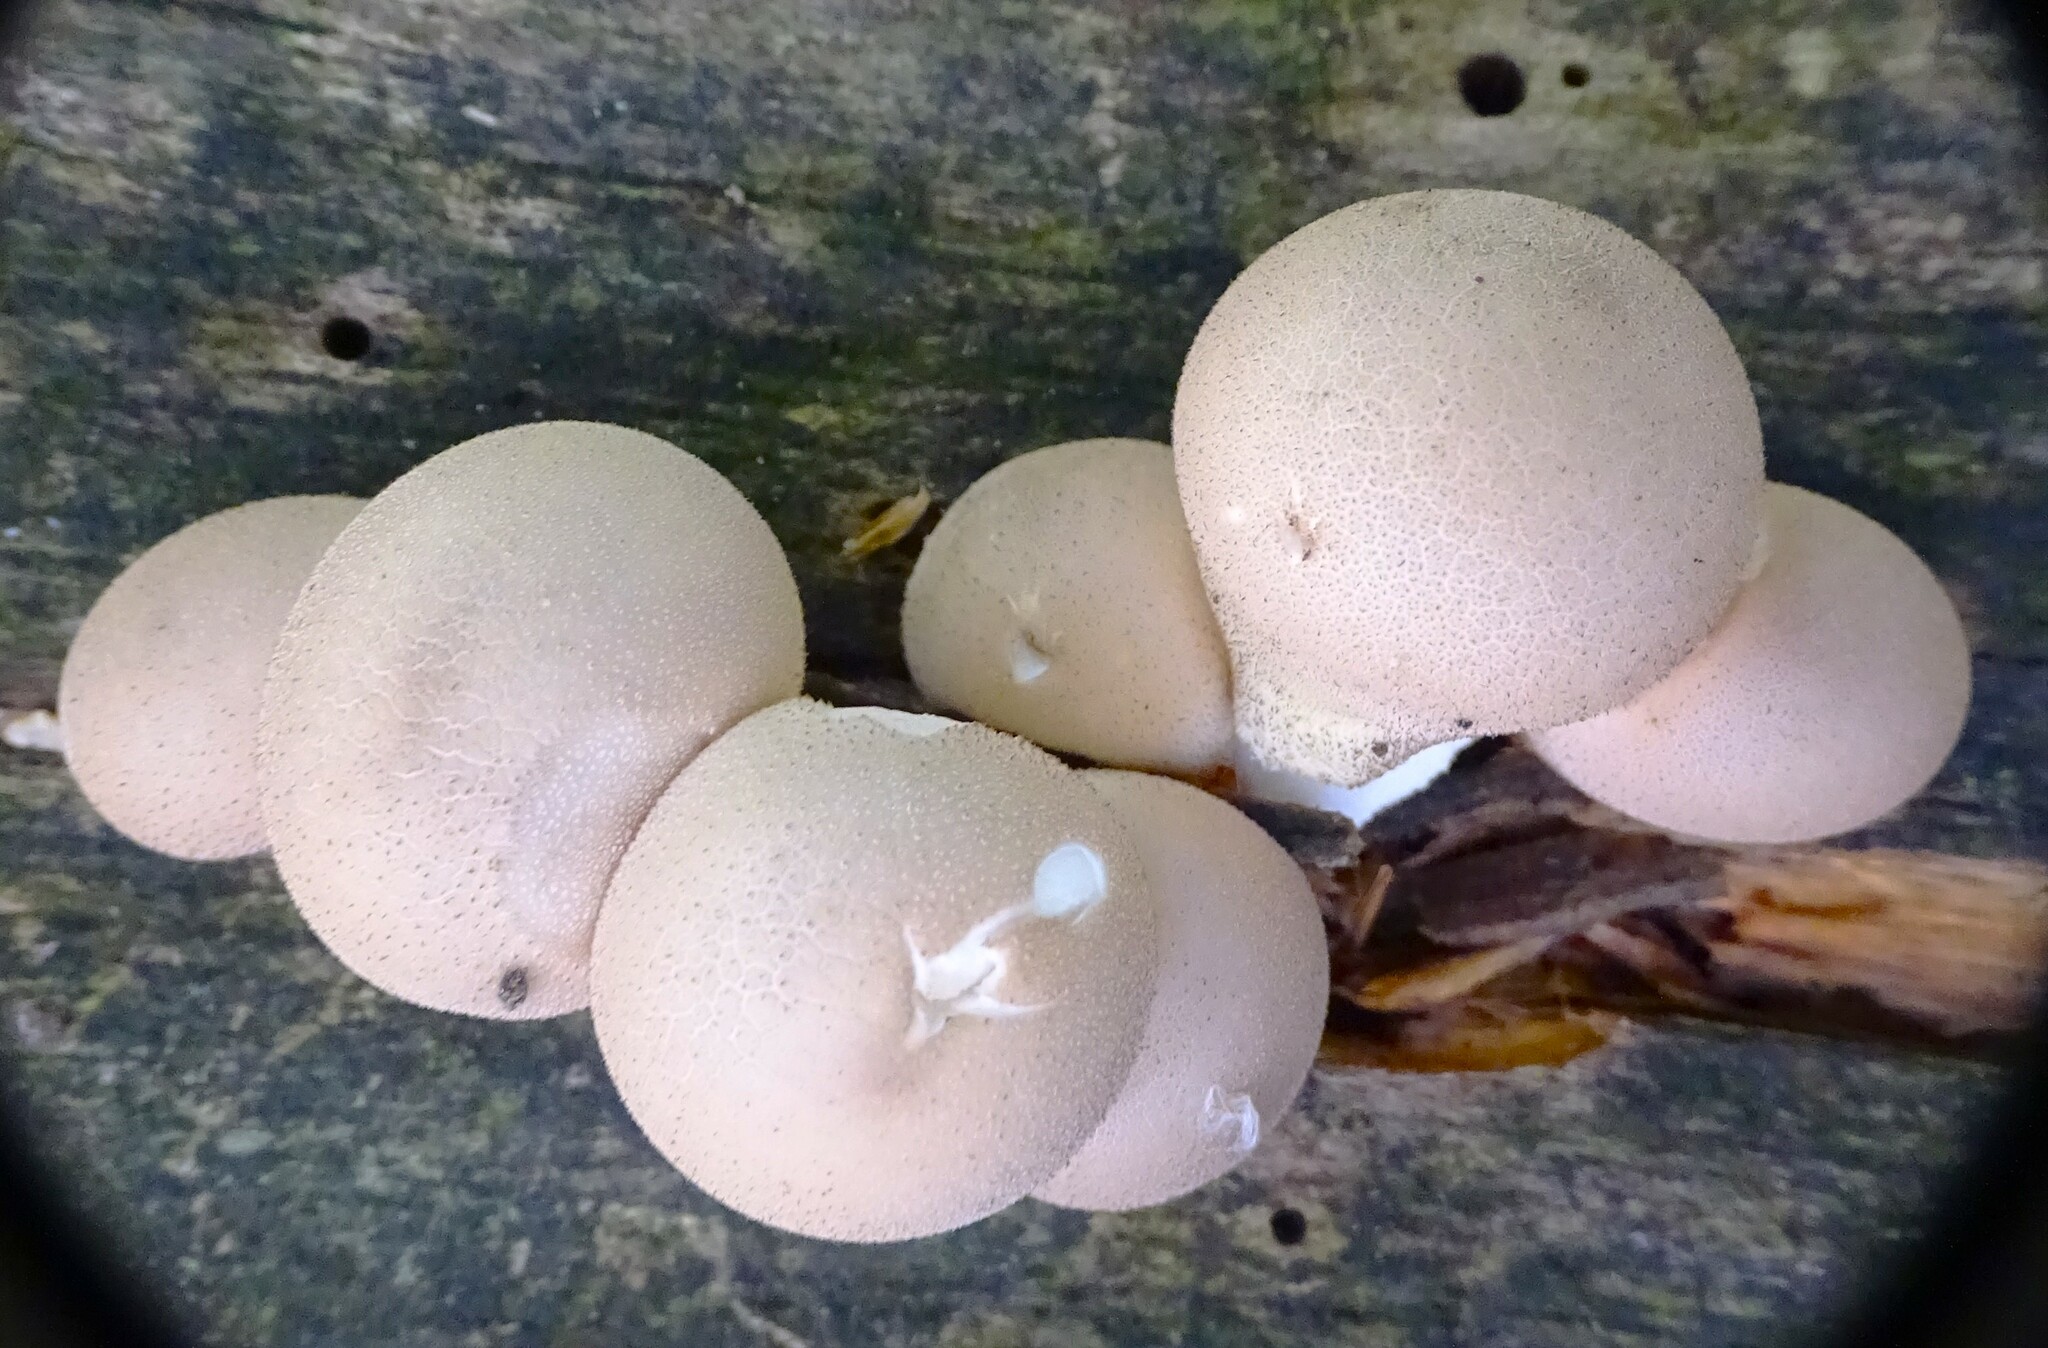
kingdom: Fungi
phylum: Basidiomycota
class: Agaricomycetes
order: Agaricales
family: Lycoperdaceae
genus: Apioperdon
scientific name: Apioperdon pyriforme
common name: Pear-shaped puffball
